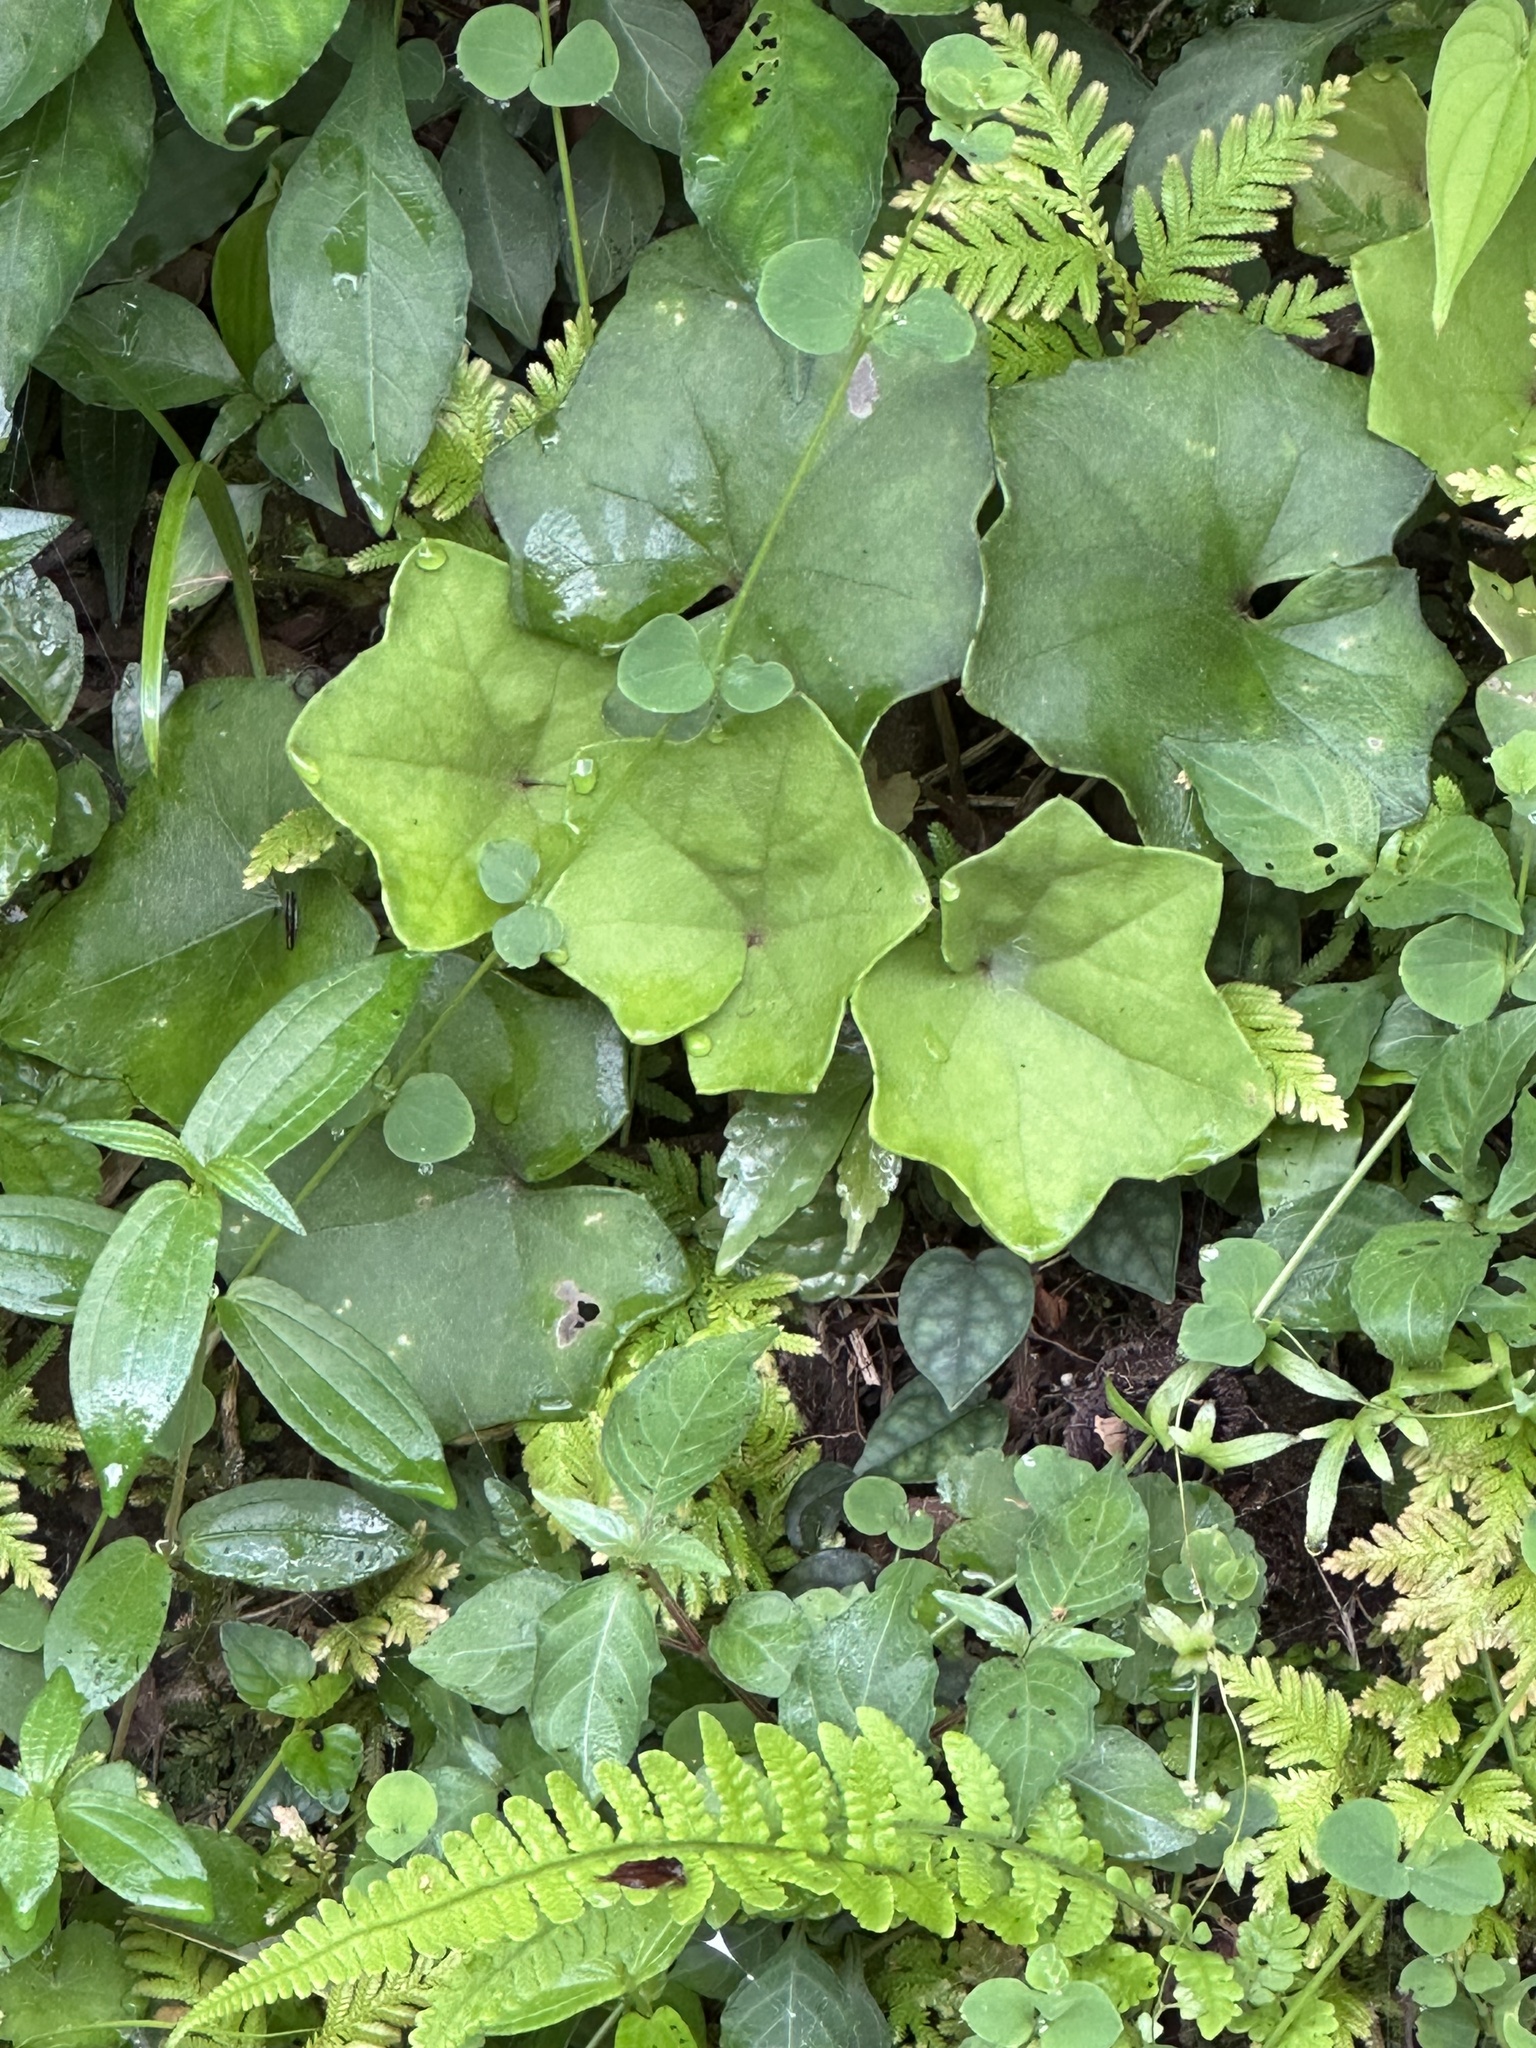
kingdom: Plantae
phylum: Tracheophyta
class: Magnoliopsida
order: Asterales
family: Asteraceae
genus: Farfugium
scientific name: Farfugium japonicum
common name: Leopardplant
